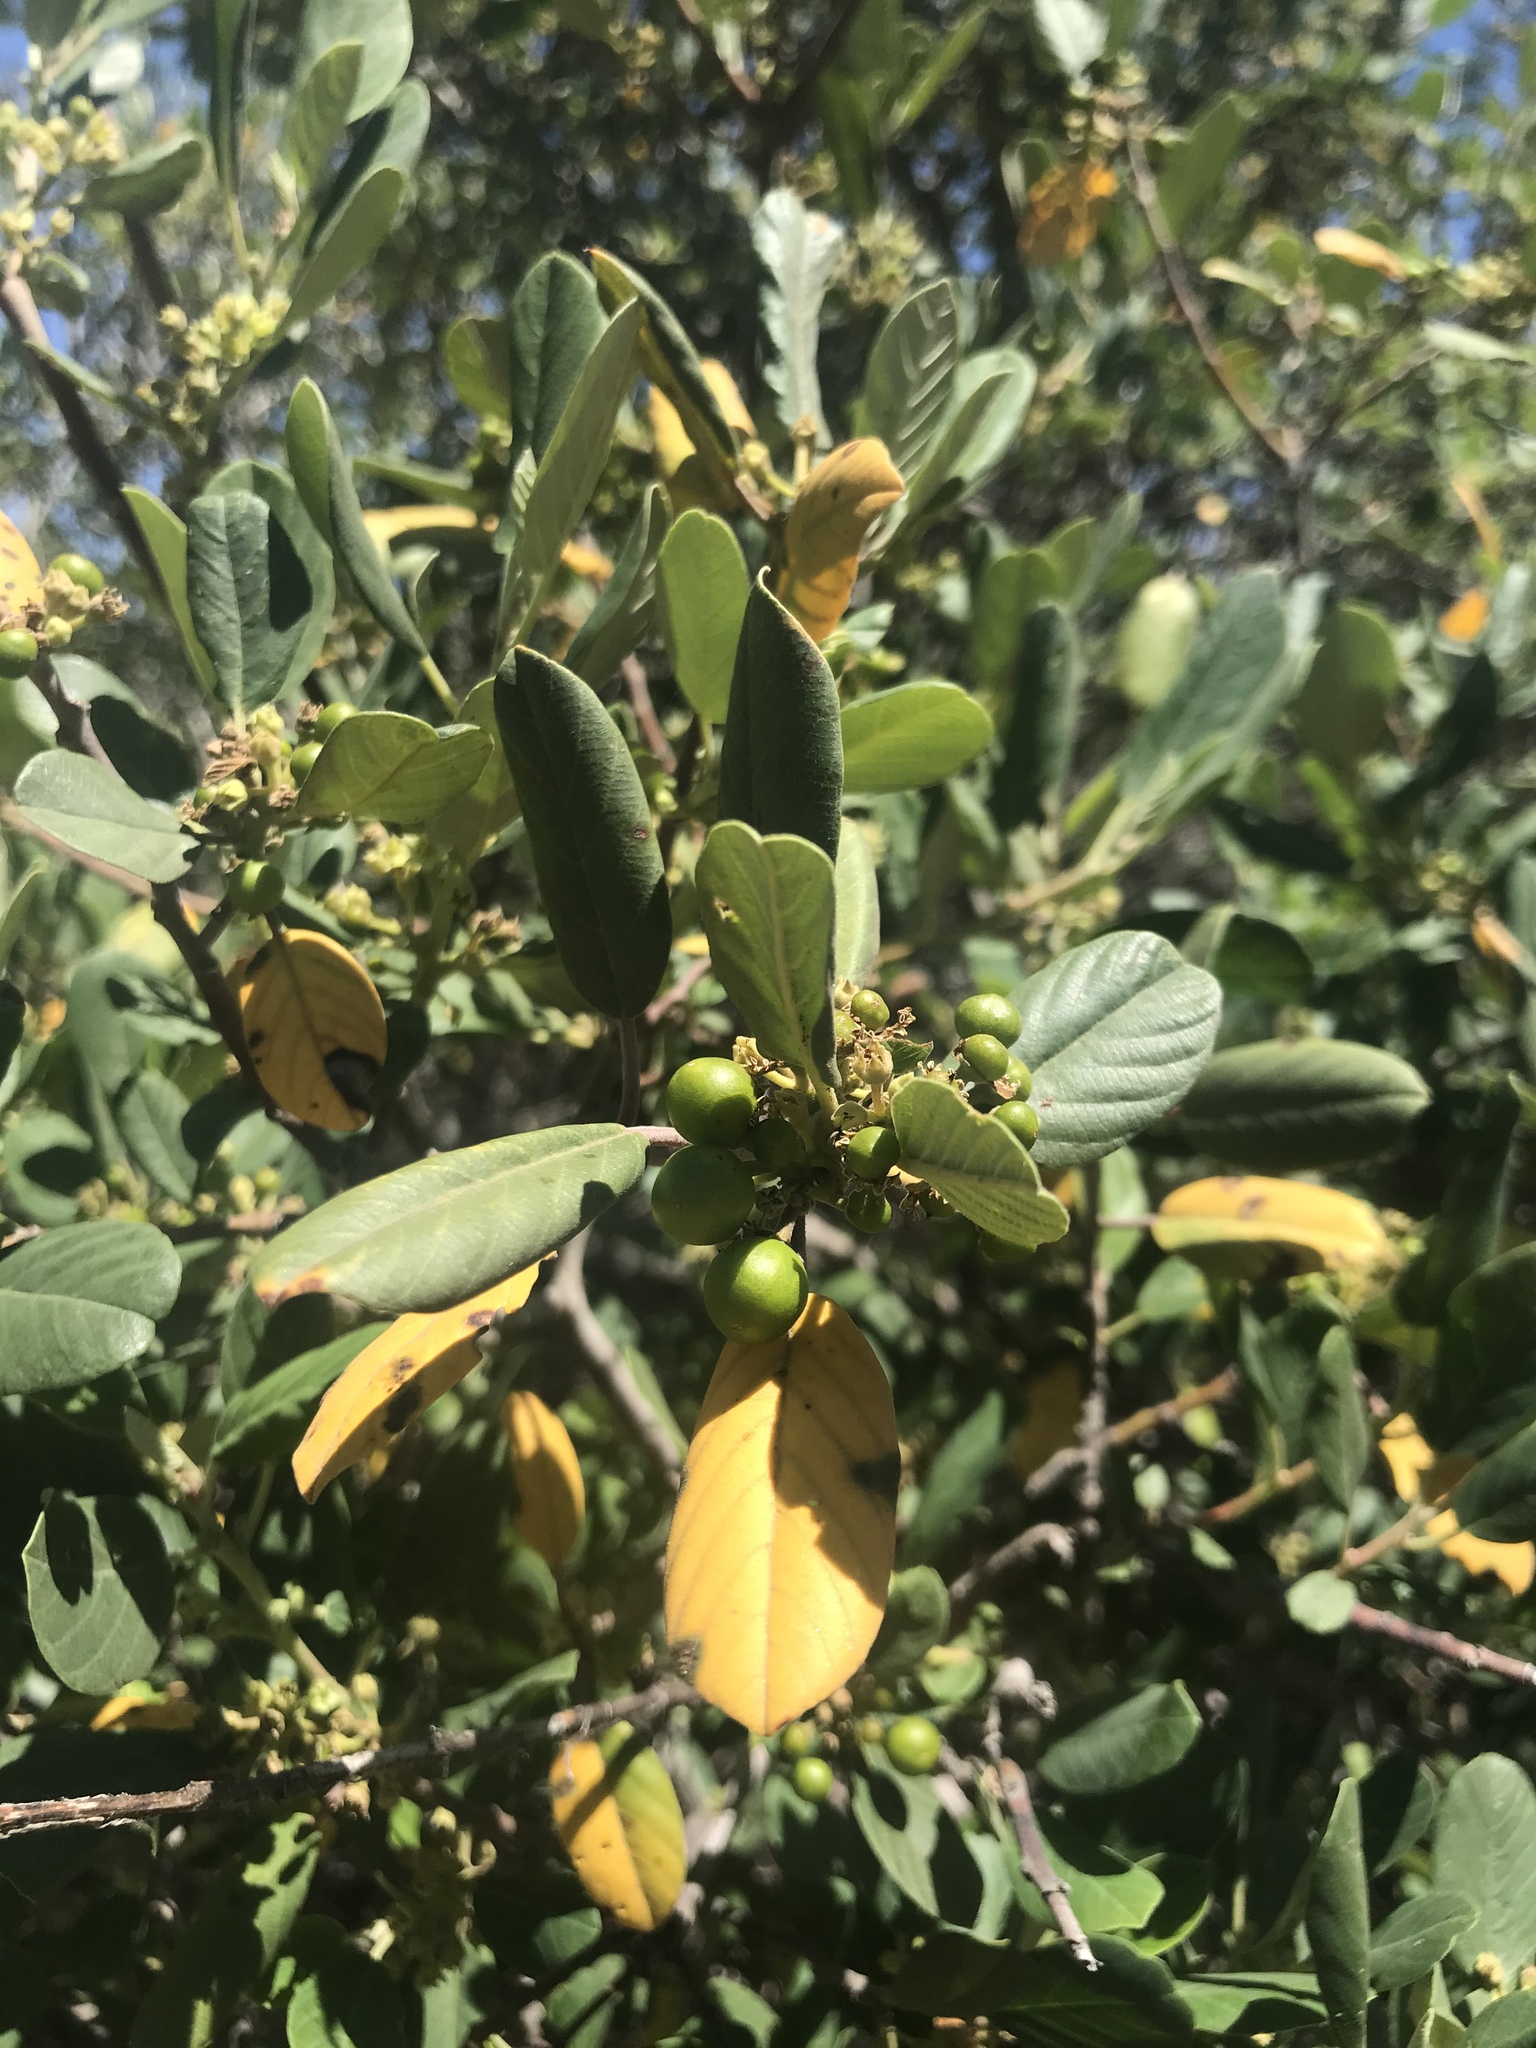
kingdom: Plantae
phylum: Tracheophyta
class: Magnoliopsida
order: Rosales
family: Rhamnaceae
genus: Frangula
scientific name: Frangula californica
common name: California buckthorn
